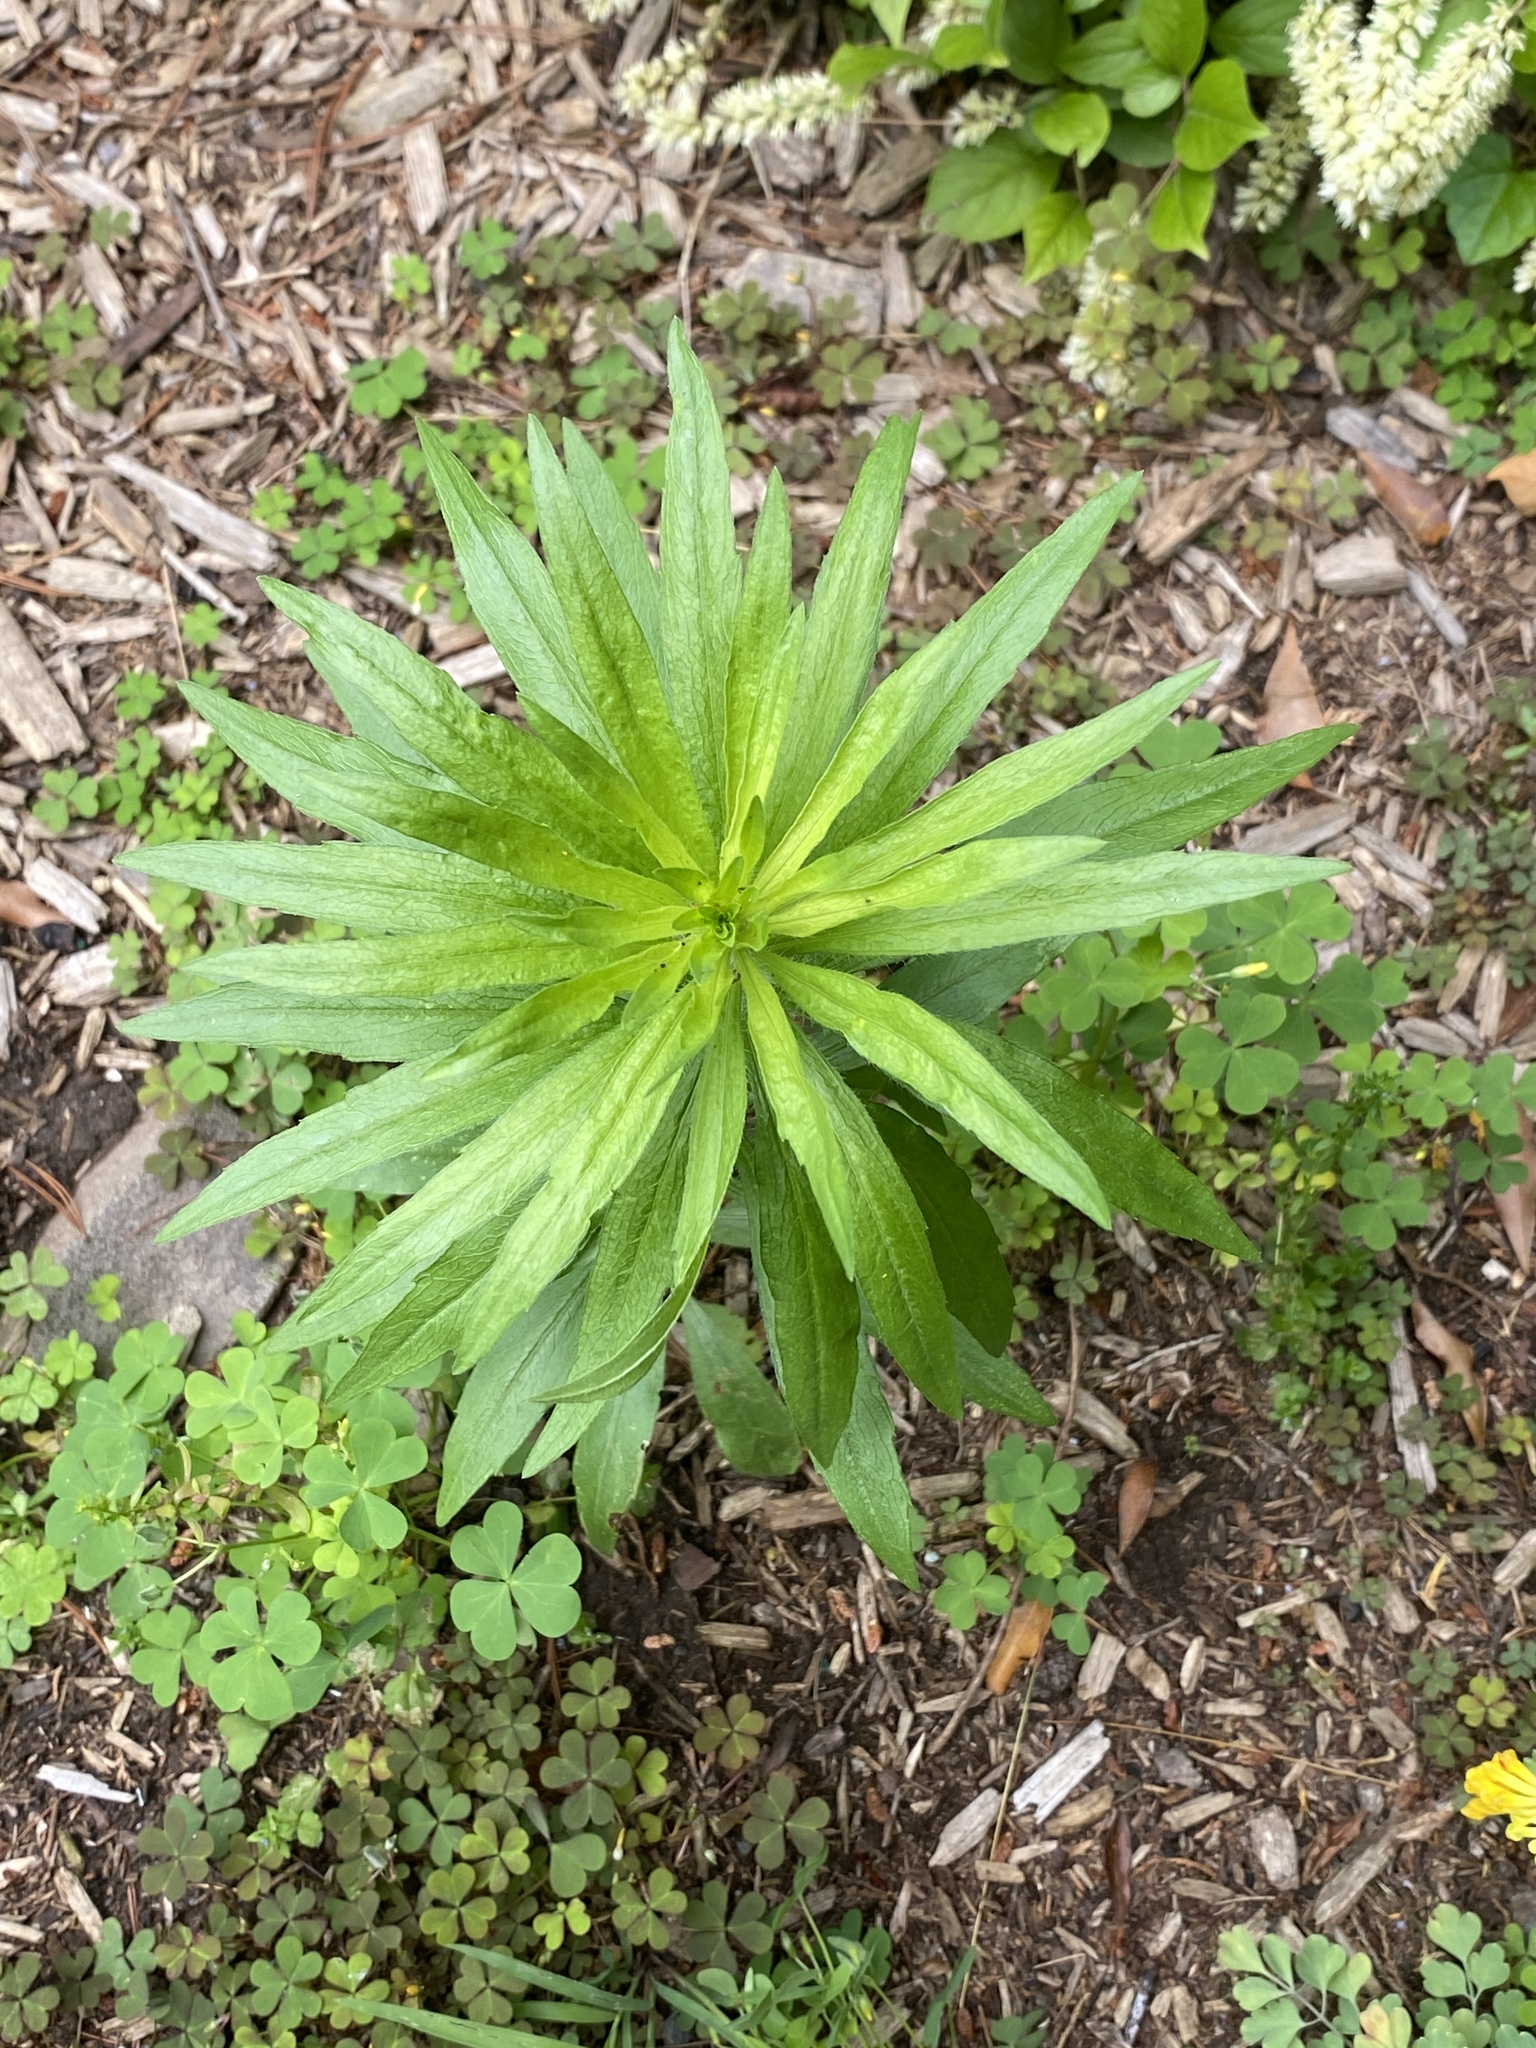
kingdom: Plantae
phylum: Tracheophyta
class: Magnoliopsida
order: Asterales
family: Asteraceae
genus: Erigeron
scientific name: Erigeron canadensis
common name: Canadian fleabane
